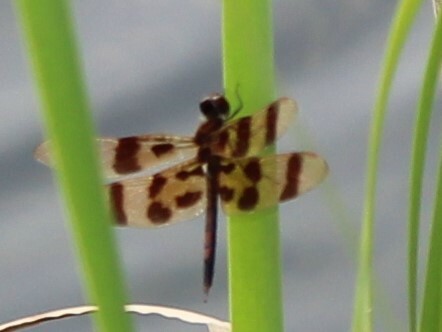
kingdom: Animalia
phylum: Arthropoda
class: Insecta
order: Odonata
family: Libellulidae
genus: Celithemis
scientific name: Celithemis eponina
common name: Halloween pennant
